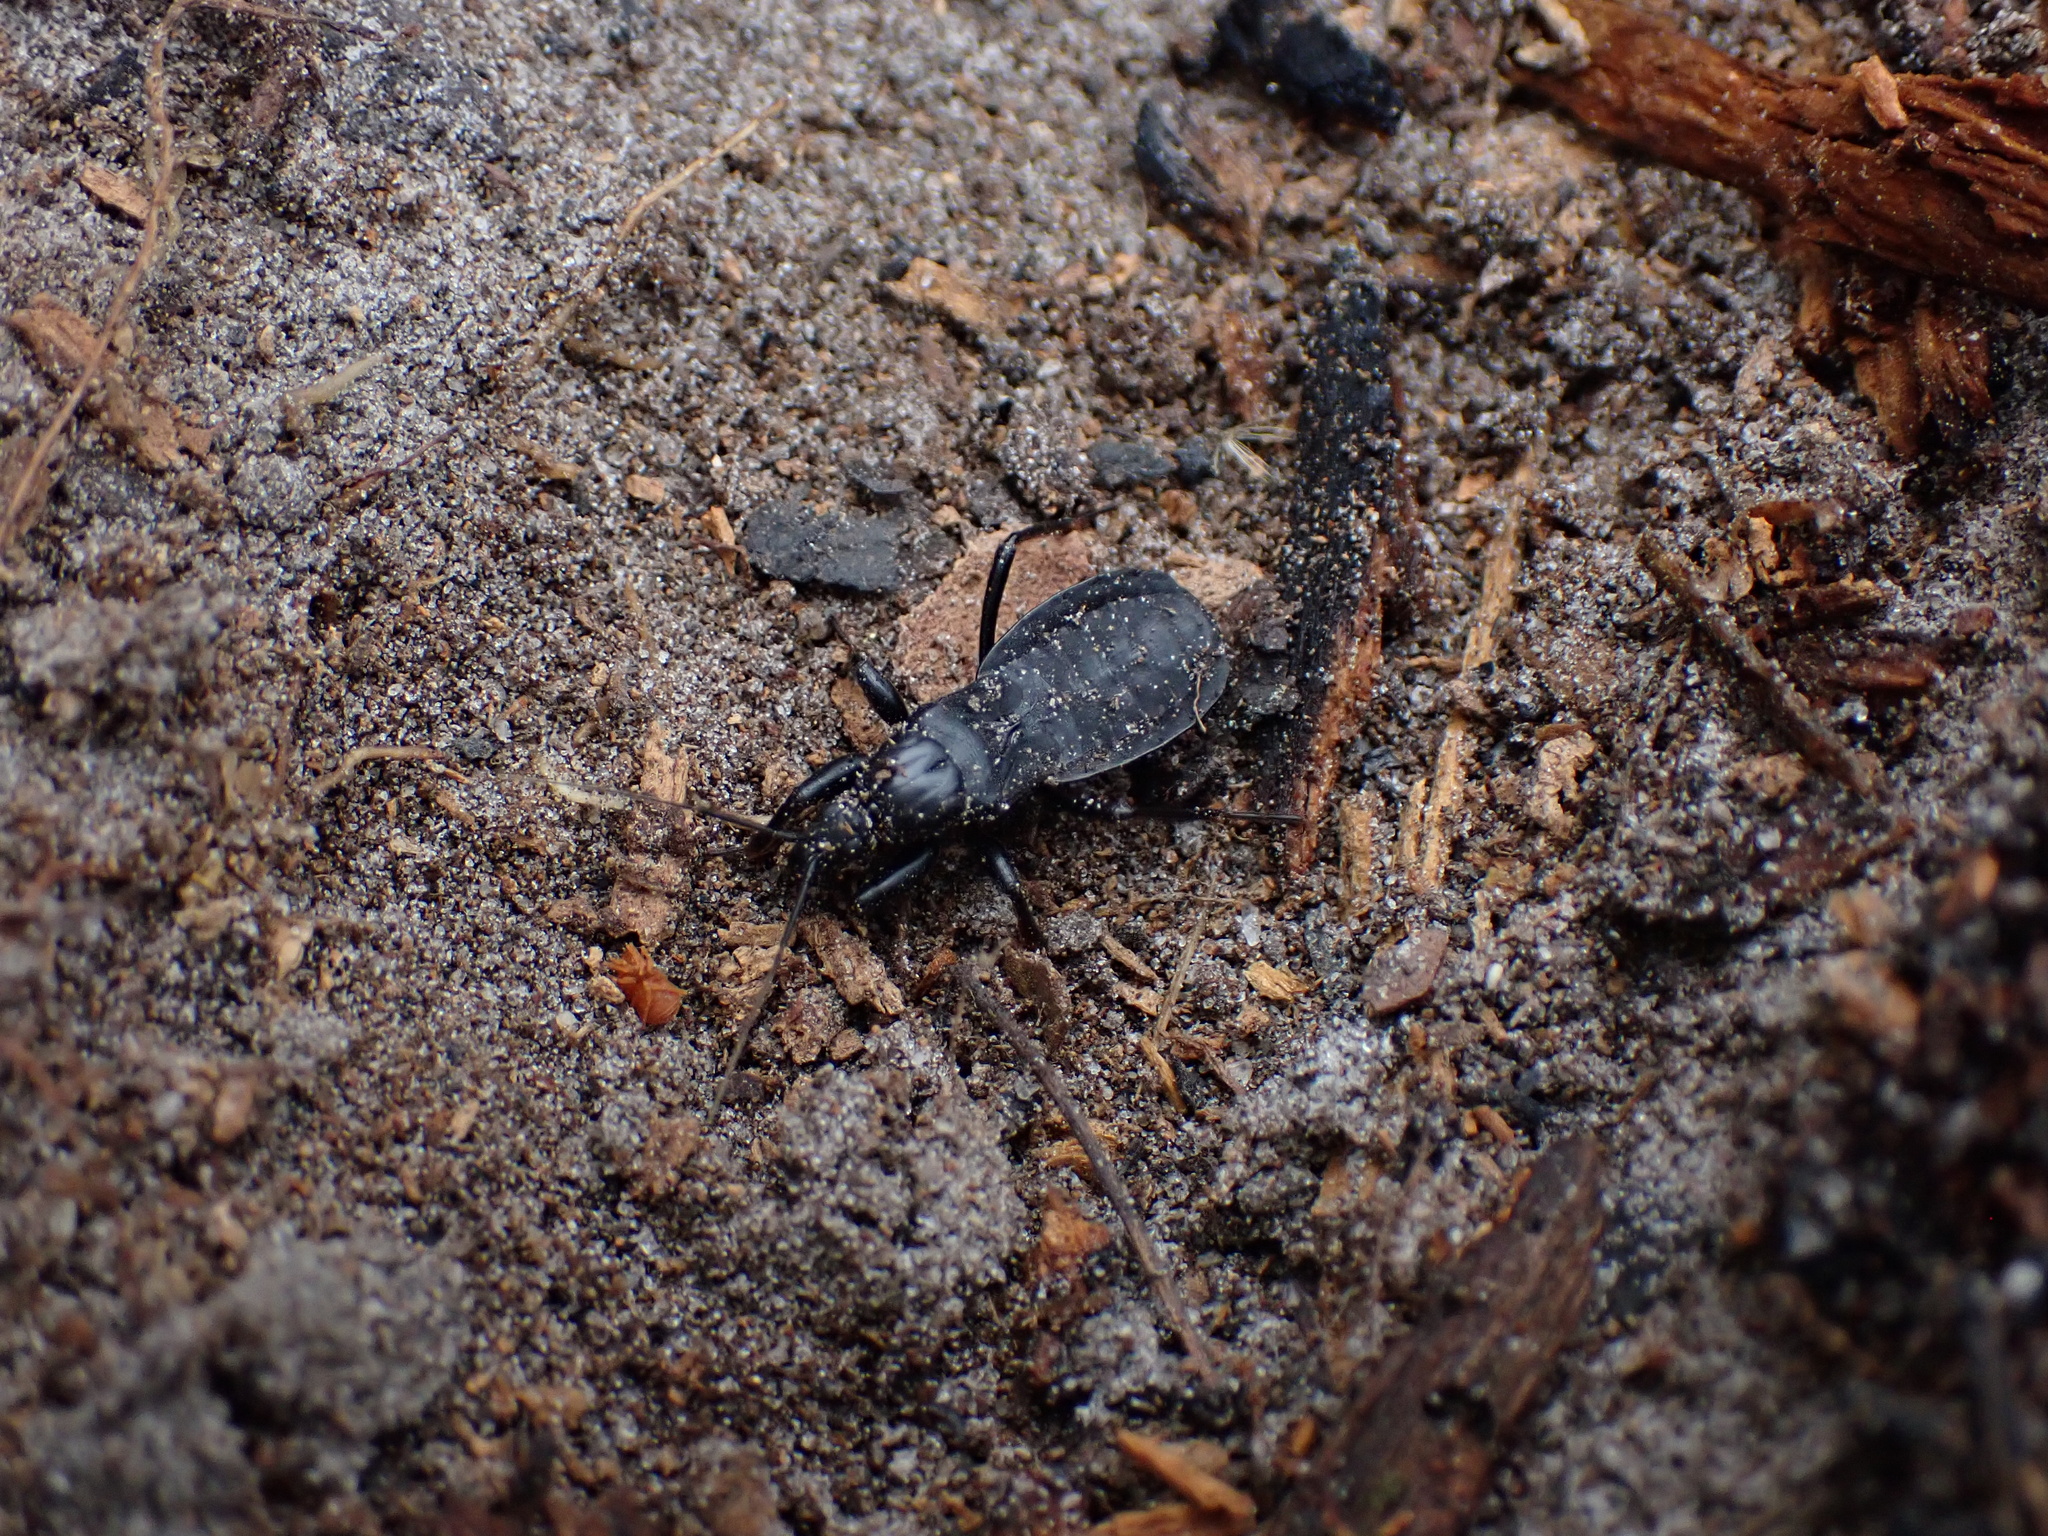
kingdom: Animalia
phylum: Arthropoda
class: Insecta
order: Hemiptera
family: Reduviidae
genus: Melanolestes
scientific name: Melanolestes picipes
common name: Assassin bug
